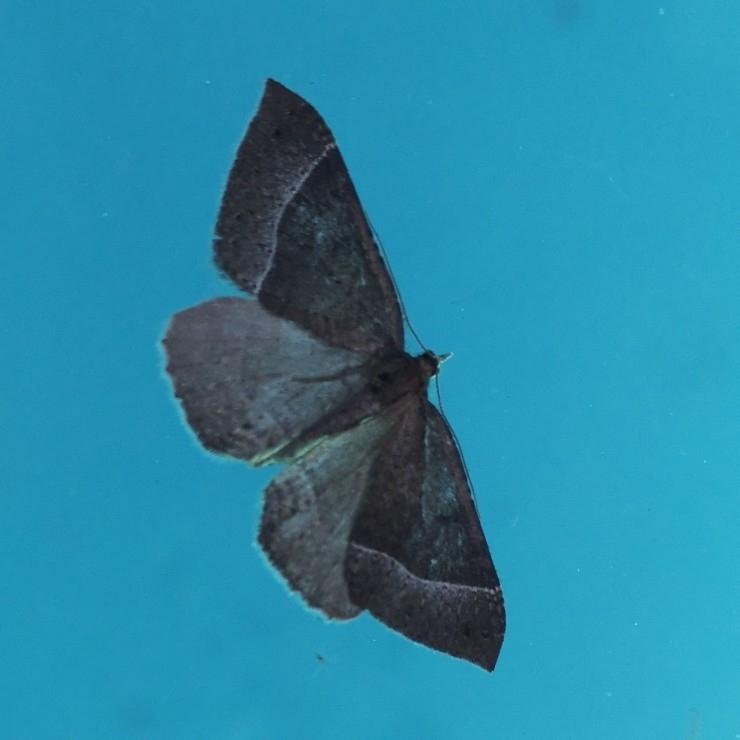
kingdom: Animalia
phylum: Arthropoda
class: Insecta
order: Lepidoptera
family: Geometridae
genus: Ennada
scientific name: Ennada flavaria
